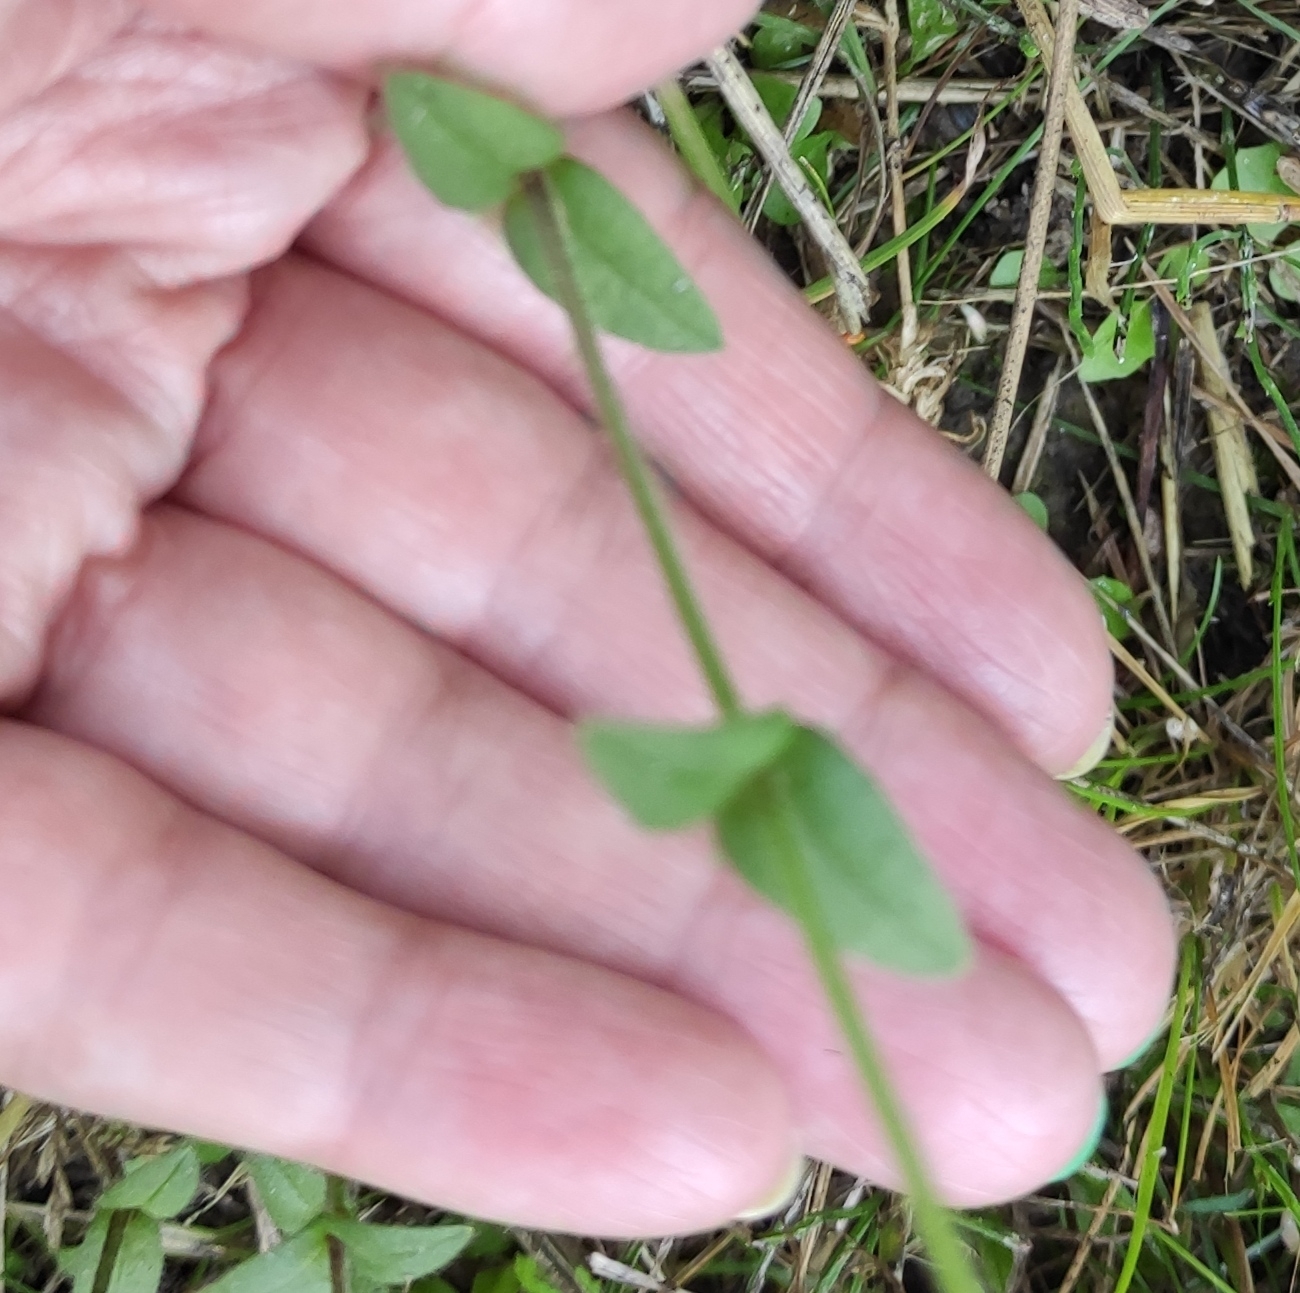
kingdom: Plantae
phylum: Tracheophyta
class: Magnoliopsida
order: Caryophyllales
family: Caryophyllaceae
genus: Cerastium
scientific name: Cerastium holosteoides
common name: Big chickweed
